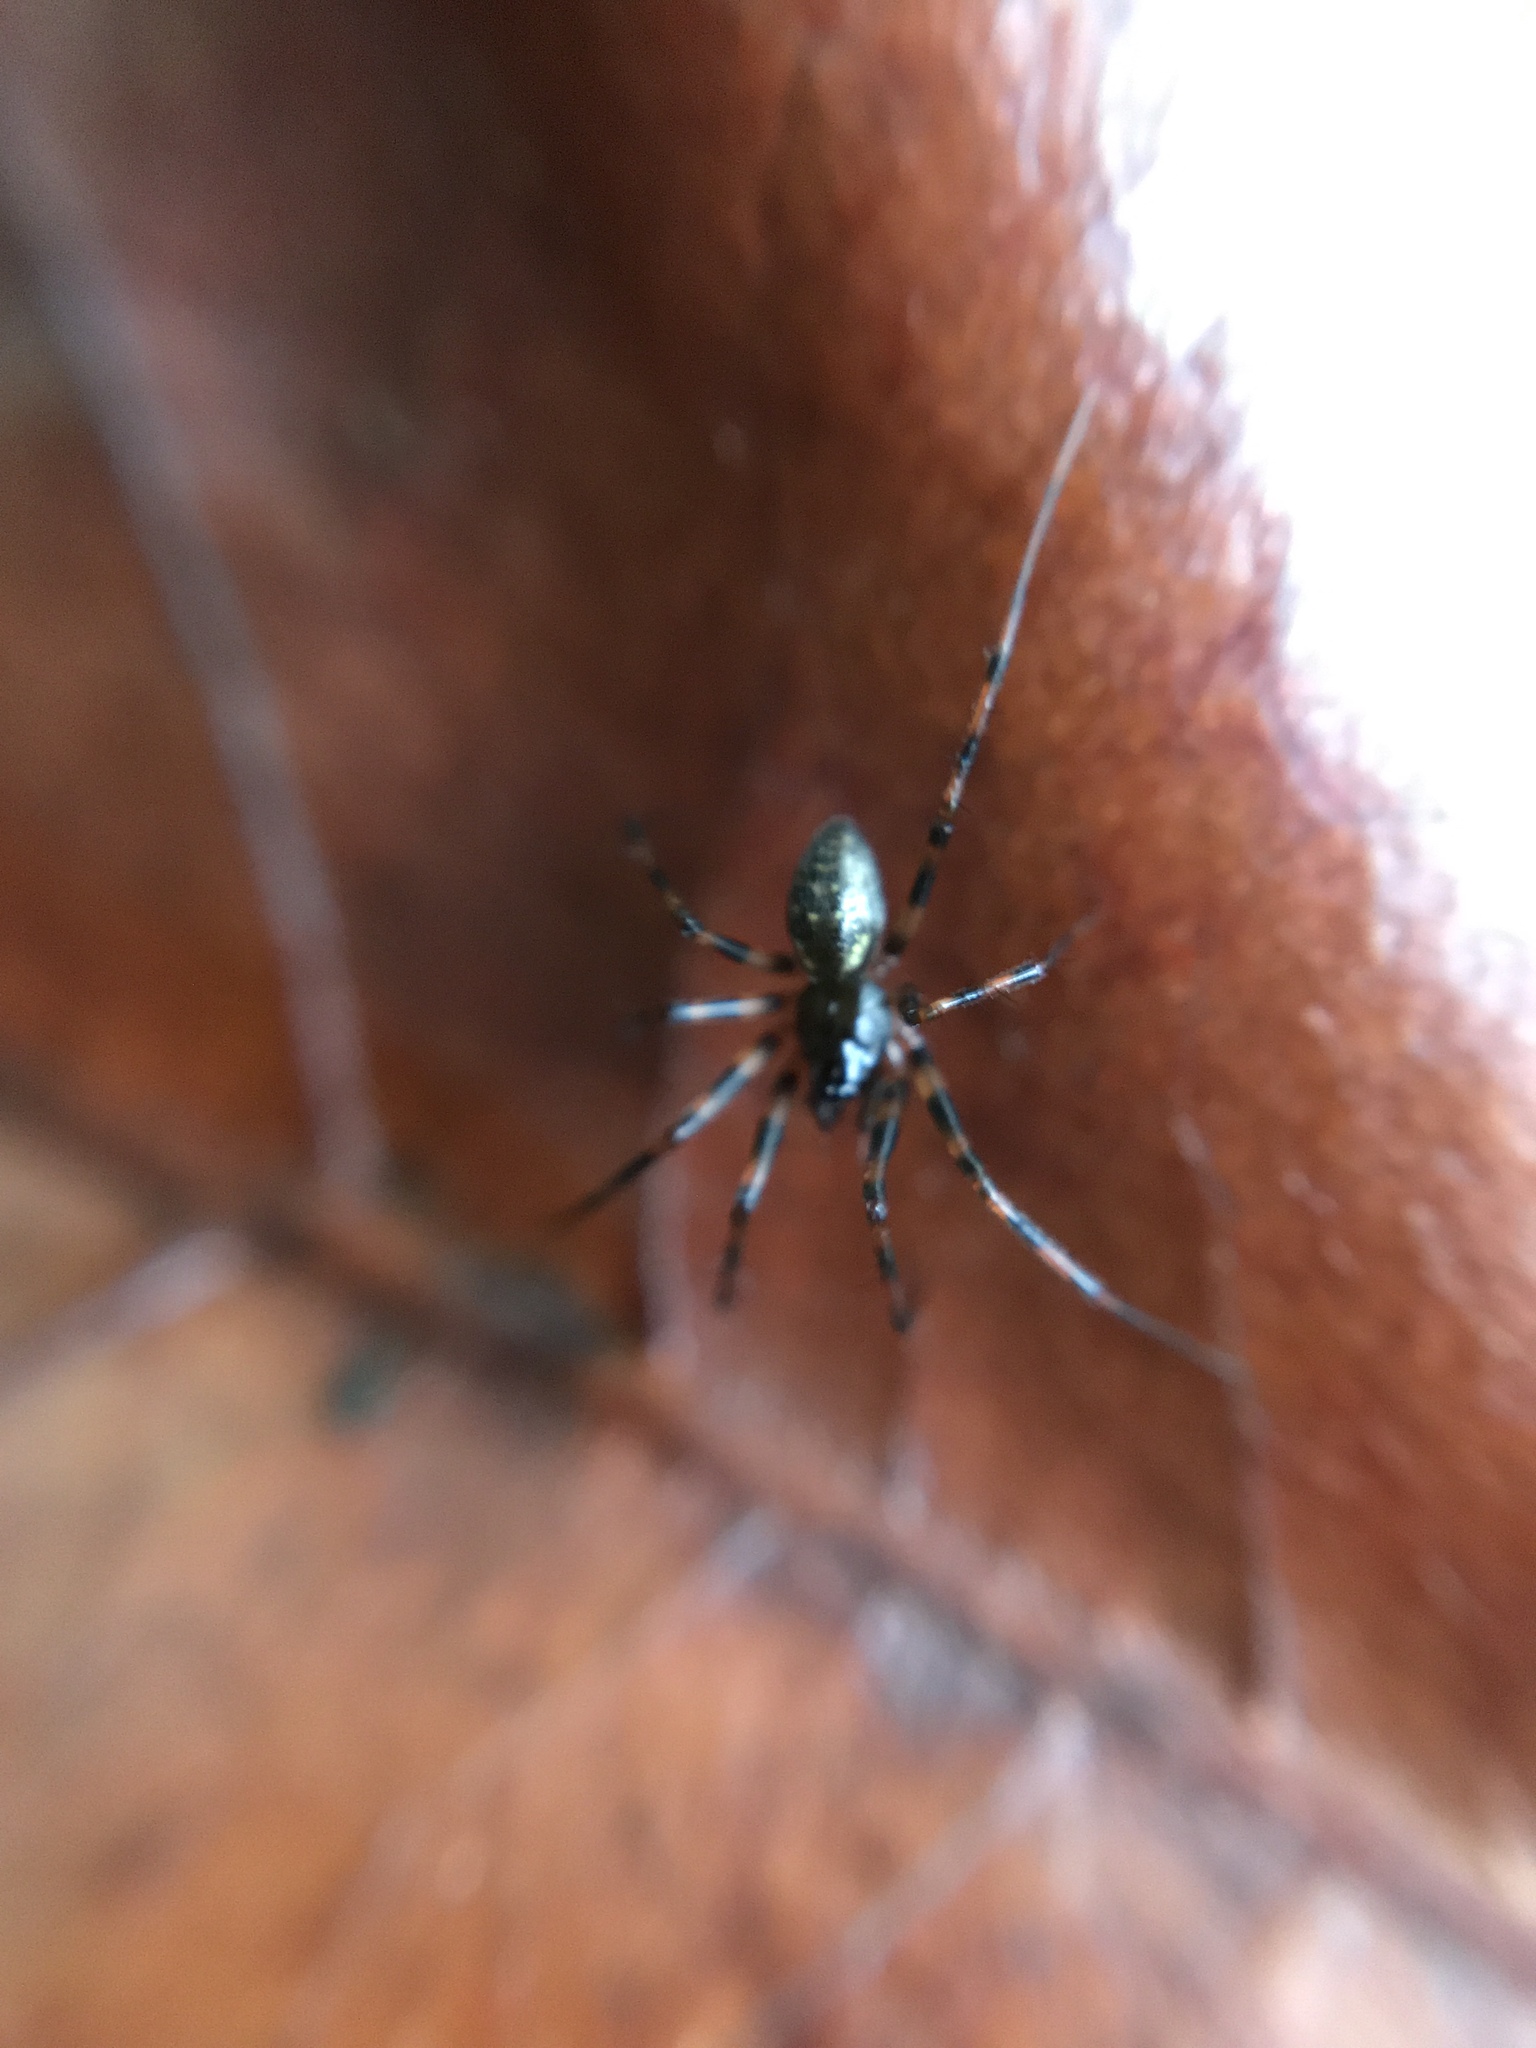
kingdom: Animalia
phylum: Arthropoda
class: Arachnida
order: Araneae
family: Tetragnathidae
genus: Meta
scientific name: Meta menardi
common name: Cave spider
